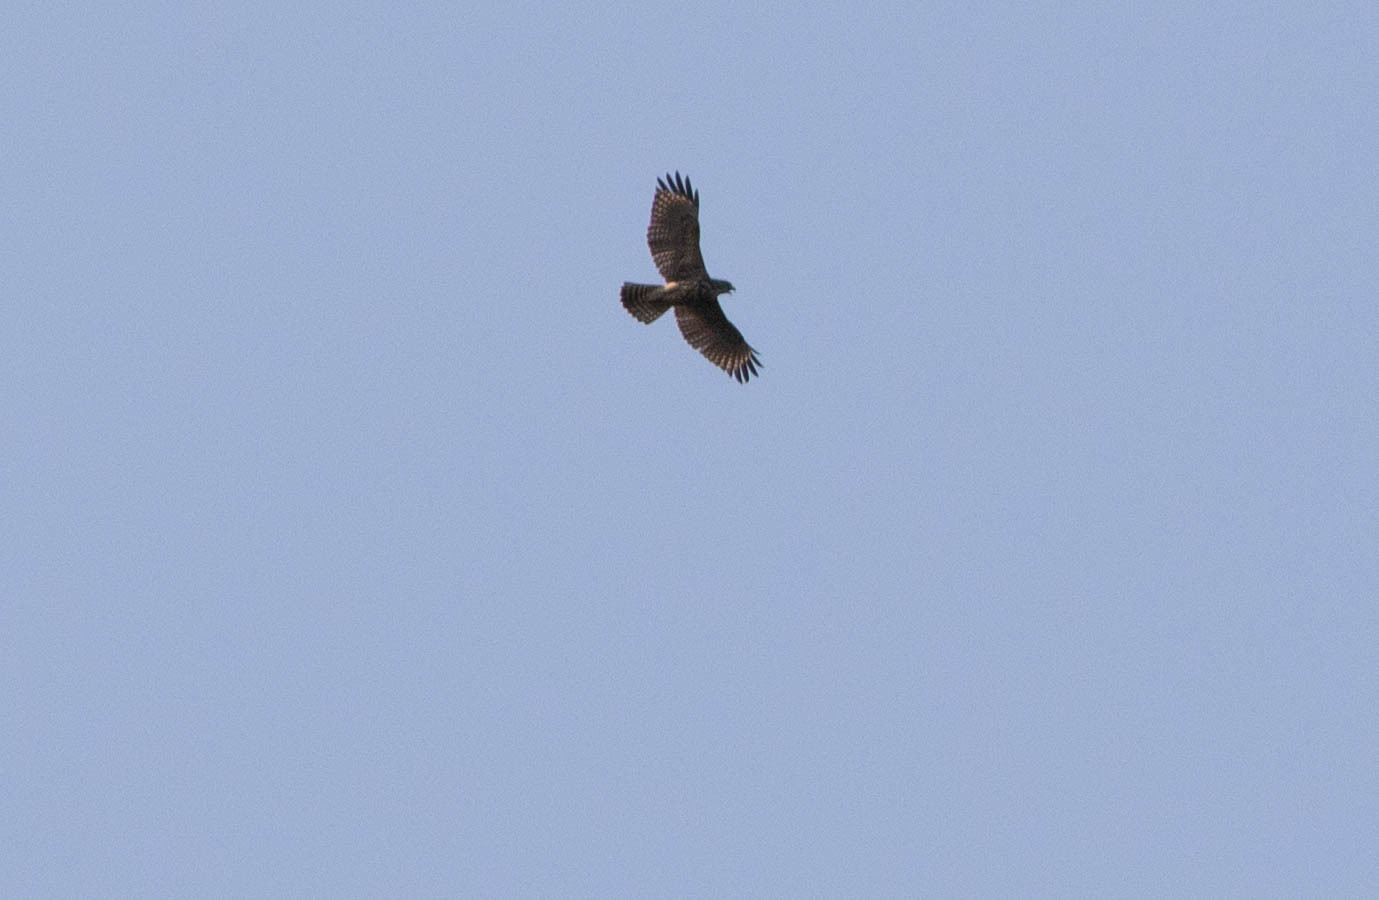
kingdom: Animalia
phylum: Chordata
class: Aves
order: Accipitriformes
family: Accipitridae
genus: Buteo
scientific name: Buteo lineatus
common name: Red-shouldered hawk
